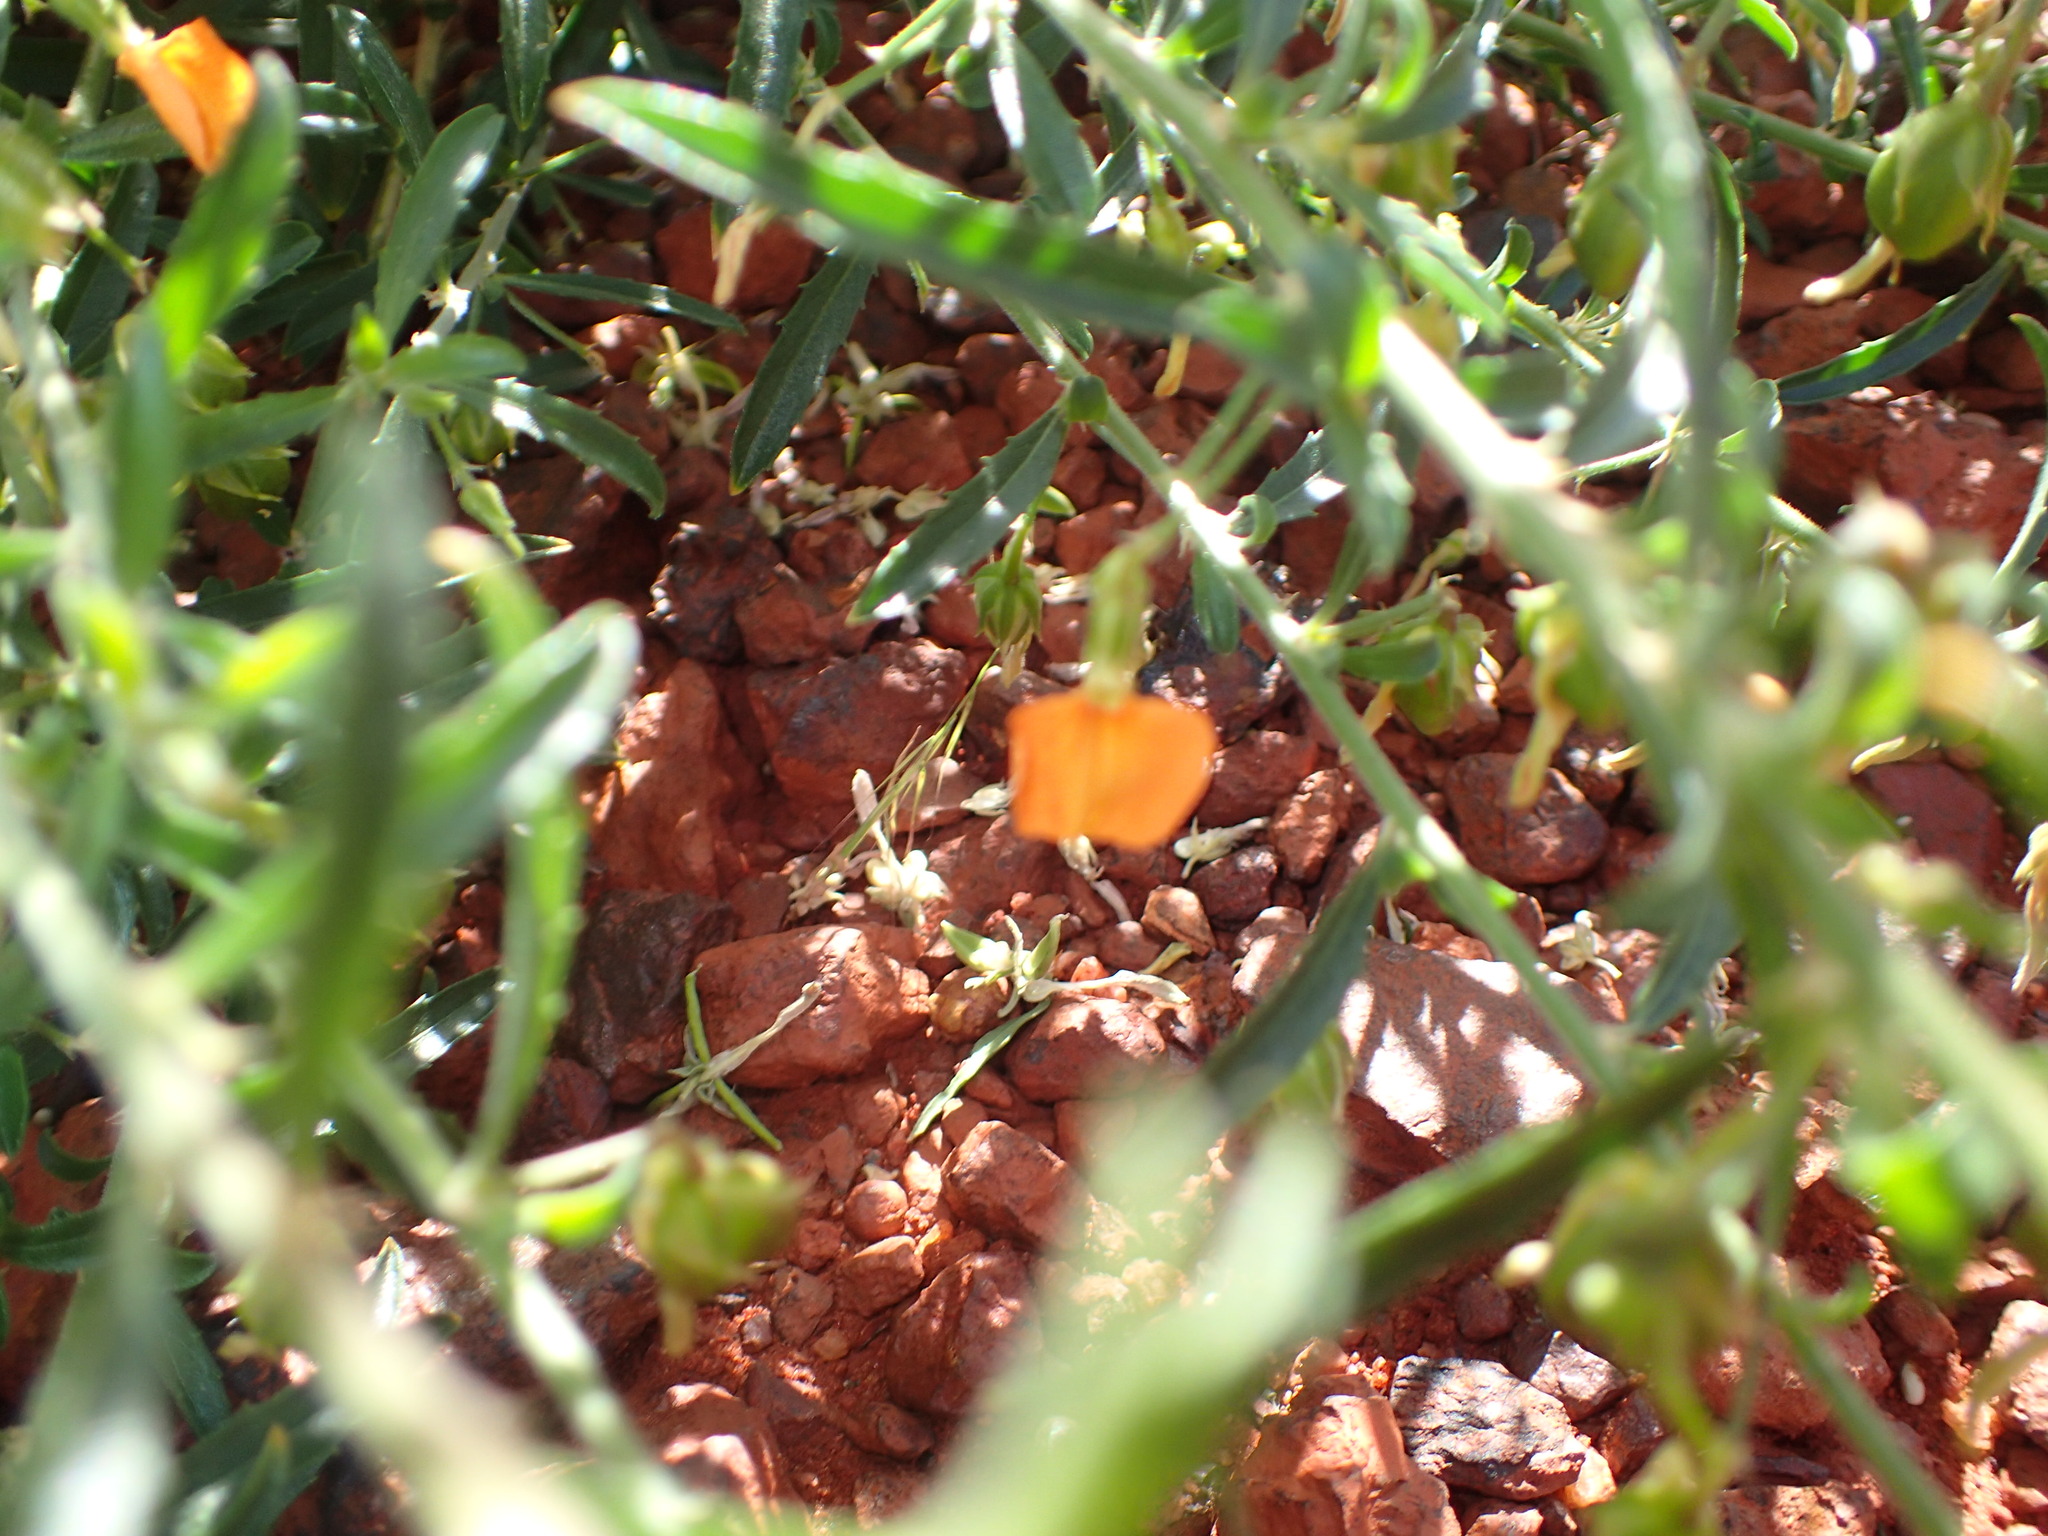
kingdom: Plantae
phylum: Tracheophyta
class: Magnoliopsida
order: Malpighiales
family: Violaceae
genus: Pigea
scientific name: Pigea aurantiaca
